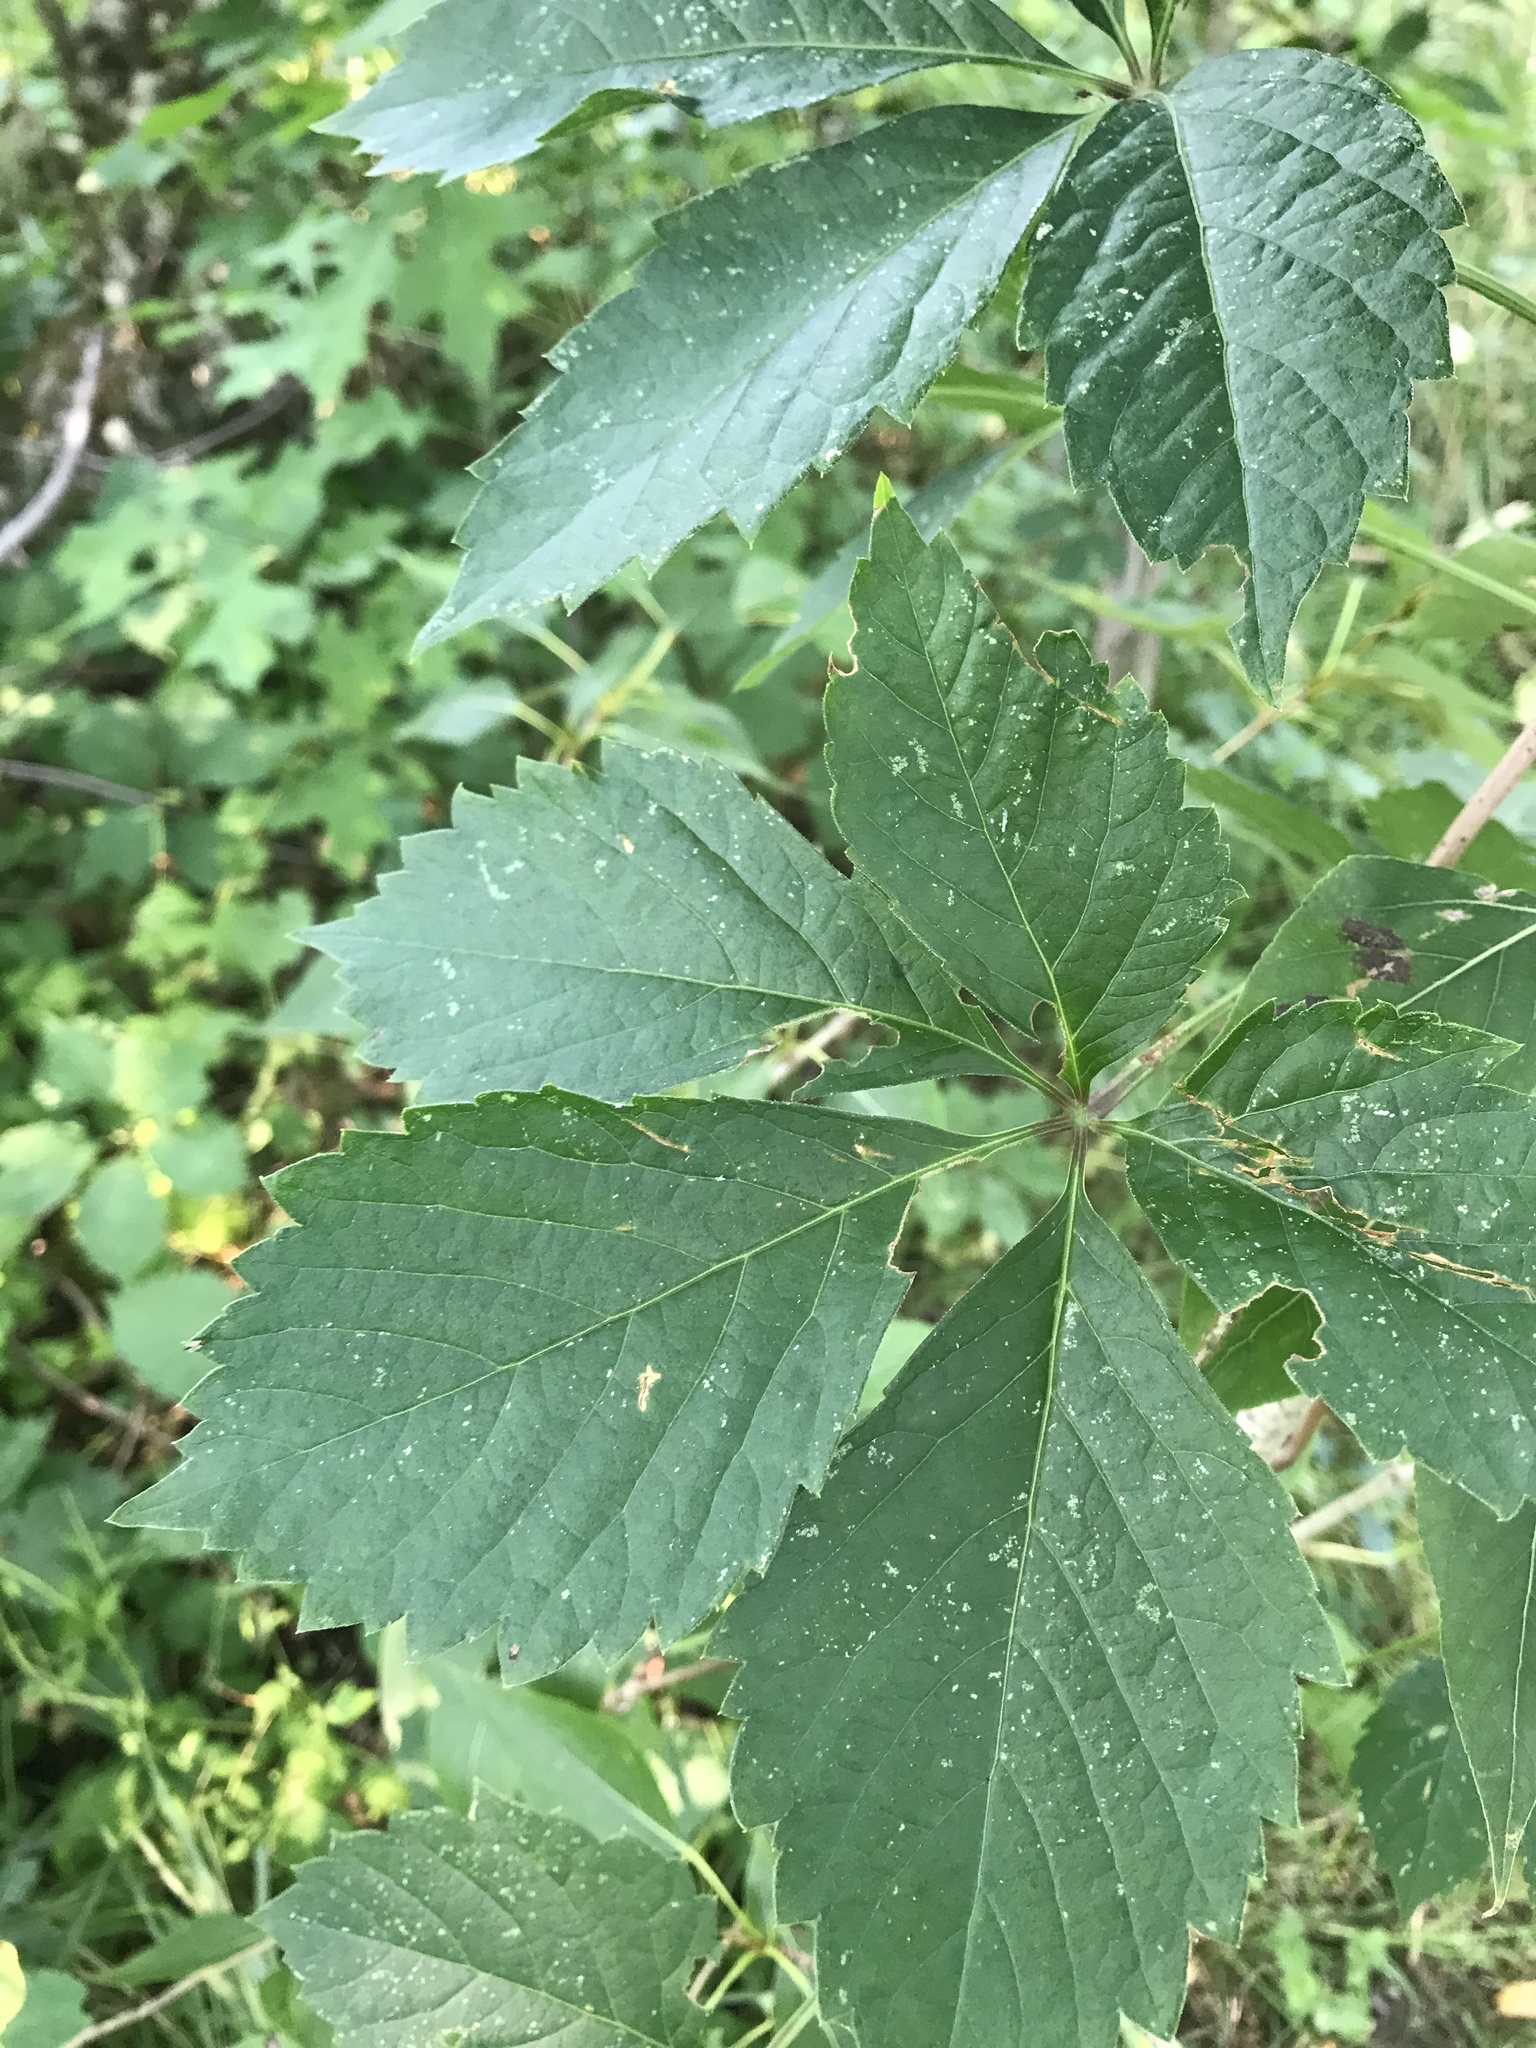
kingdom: Plantae
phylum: Tracheophyta
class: Magnoliopsida
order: Vitales
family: Vitaceae
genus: Parthenocissus
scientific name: Parthenocissus quinquefolia
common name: Virginia-creeper
